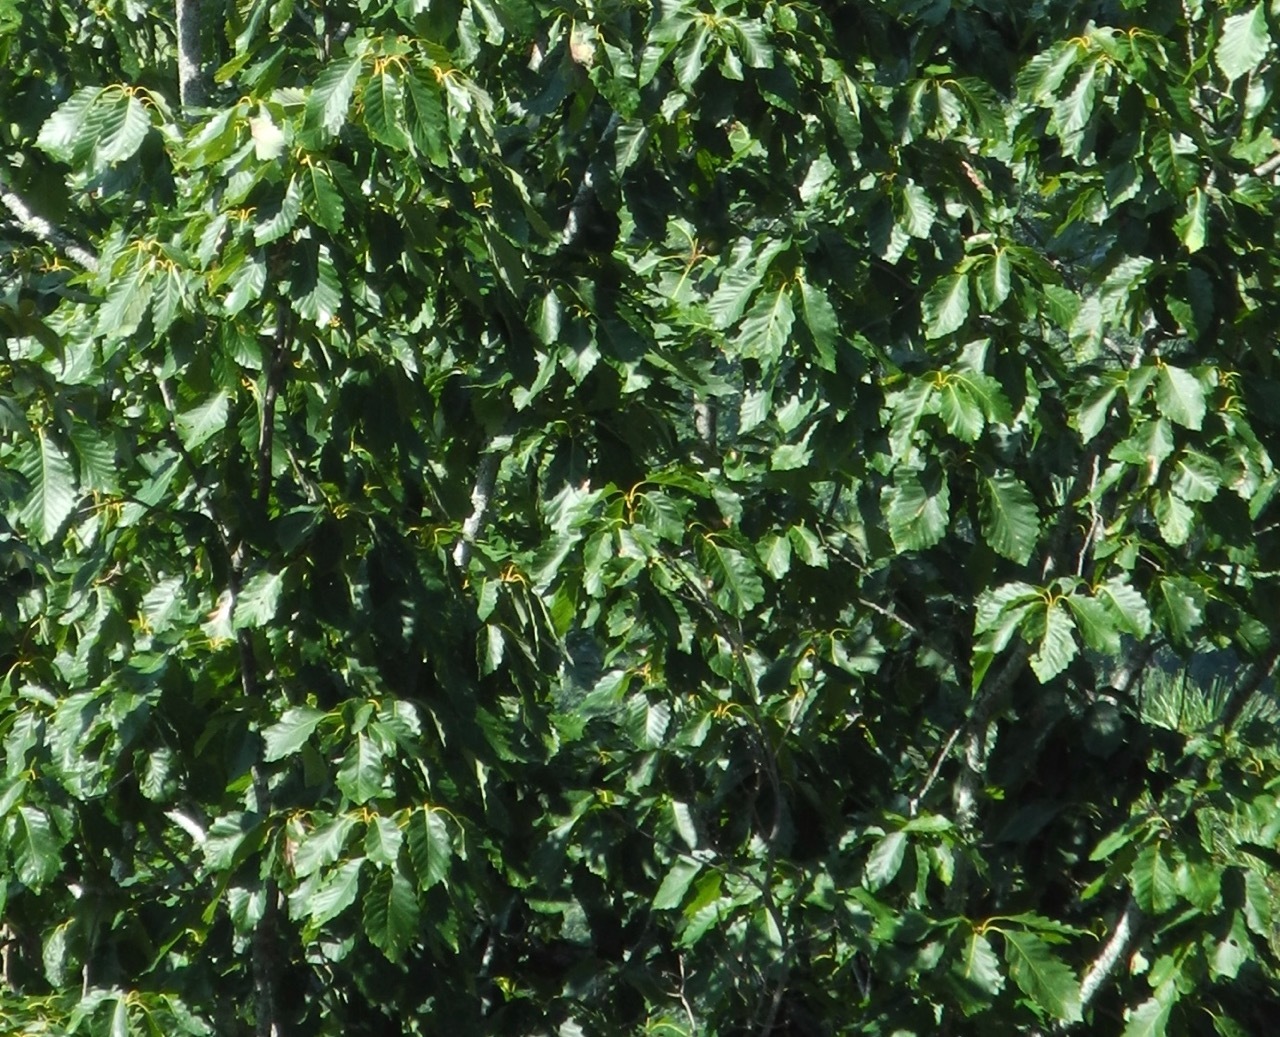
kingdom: Plantae
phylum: Tracheophyta
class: Magnoliopsida
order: Fagales
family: Fagaceae
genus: Quercus
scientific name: Quercus montana
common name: Chestnut oak
